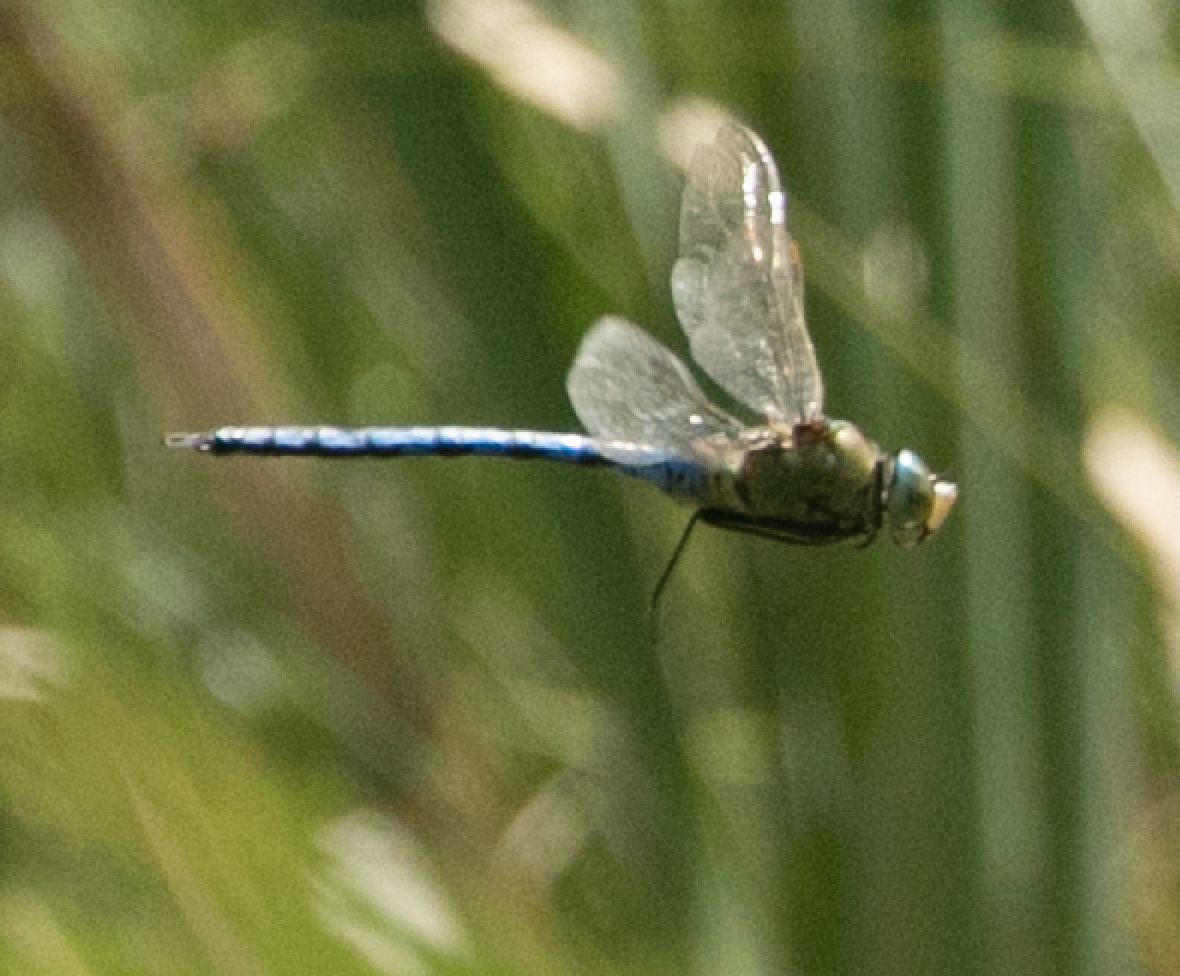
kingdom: Animalia
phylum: Arthropoda
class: Insecta
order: Odonata
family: Aeshnidae
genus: Anax
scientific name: Anax imperator
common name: Emperor dragonfly
